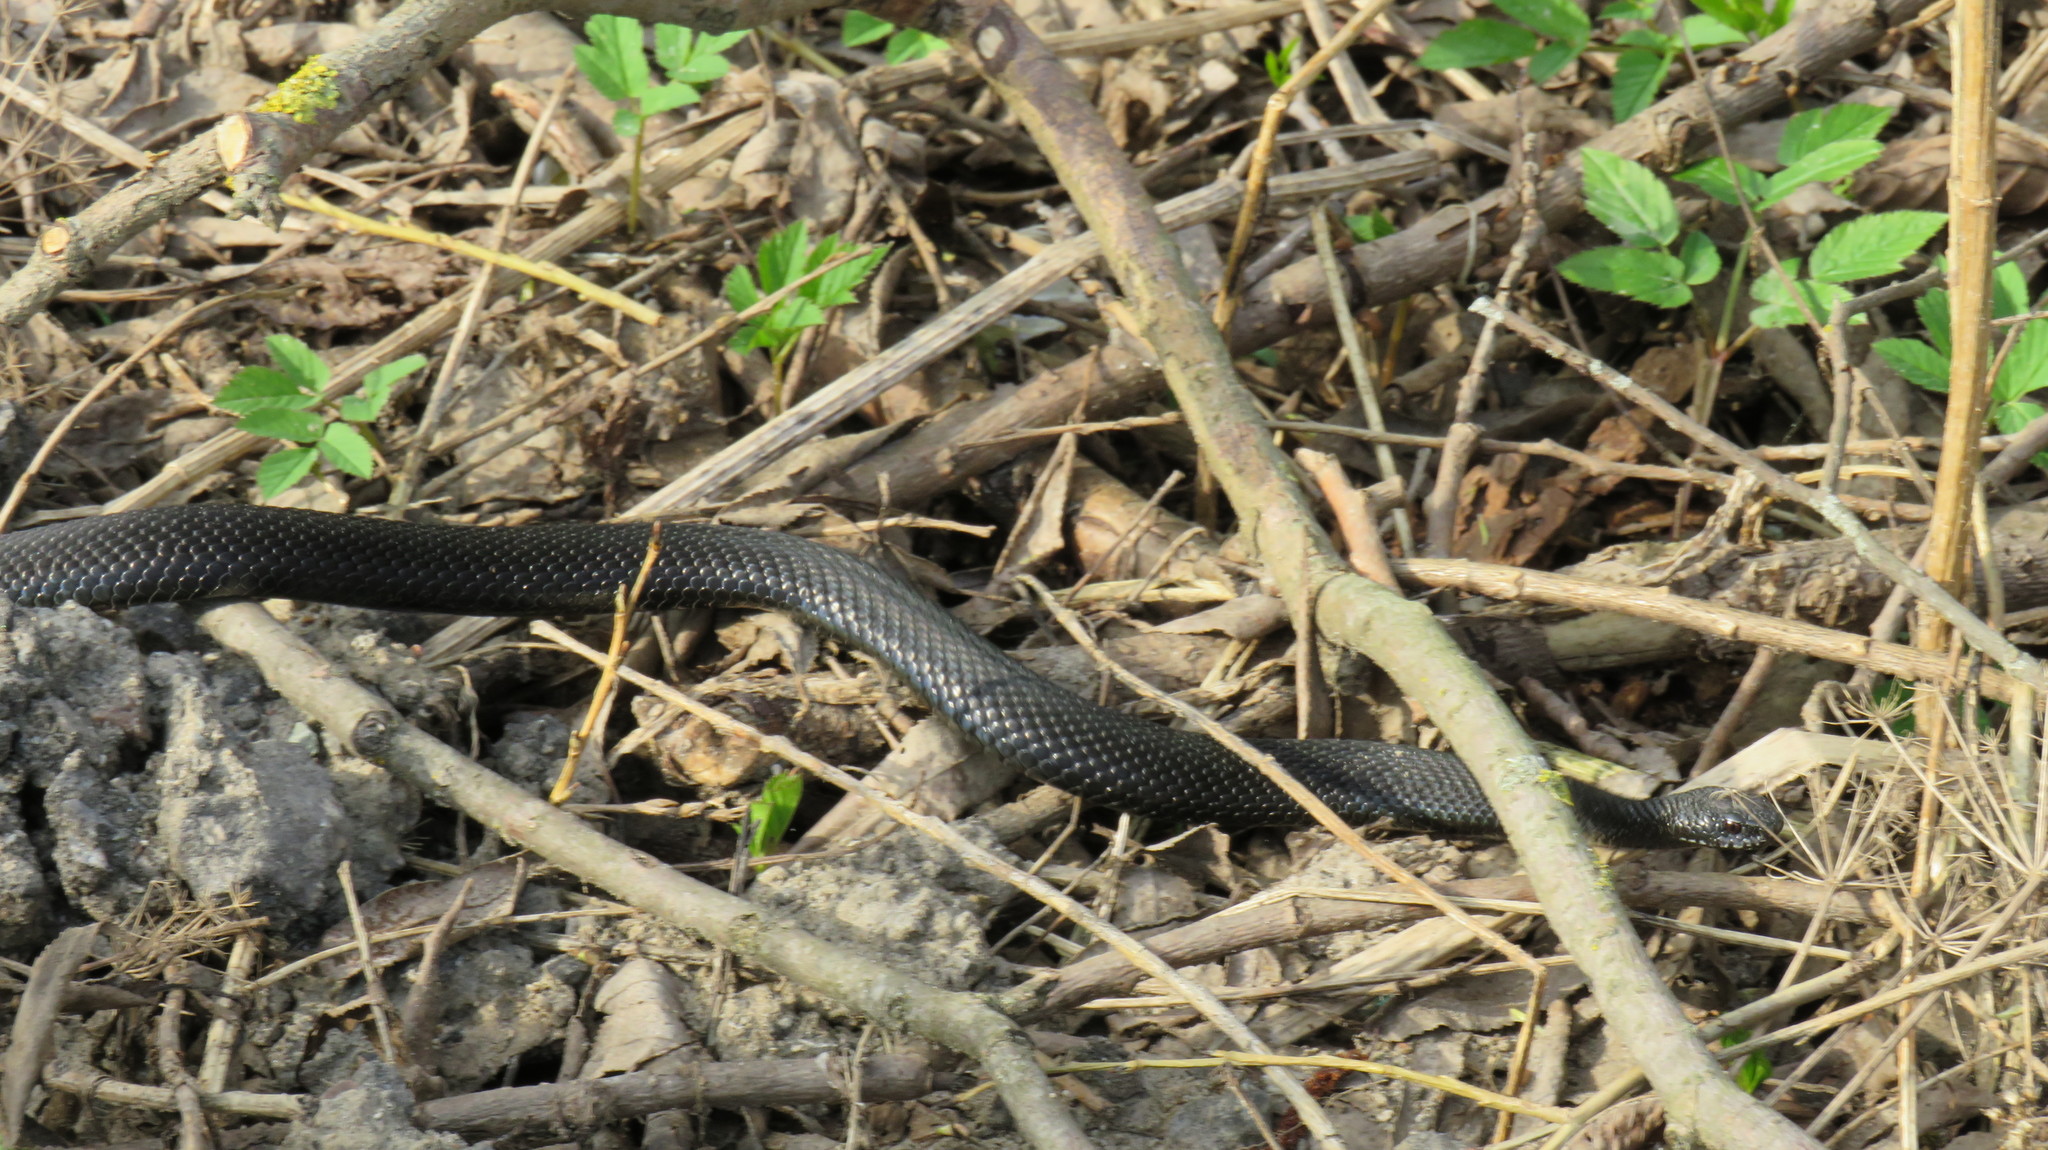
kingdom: Animalia
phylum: Chordata
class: Squamata
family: Viperidae
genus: Vipera
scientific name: Vipera berus
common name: Adder
